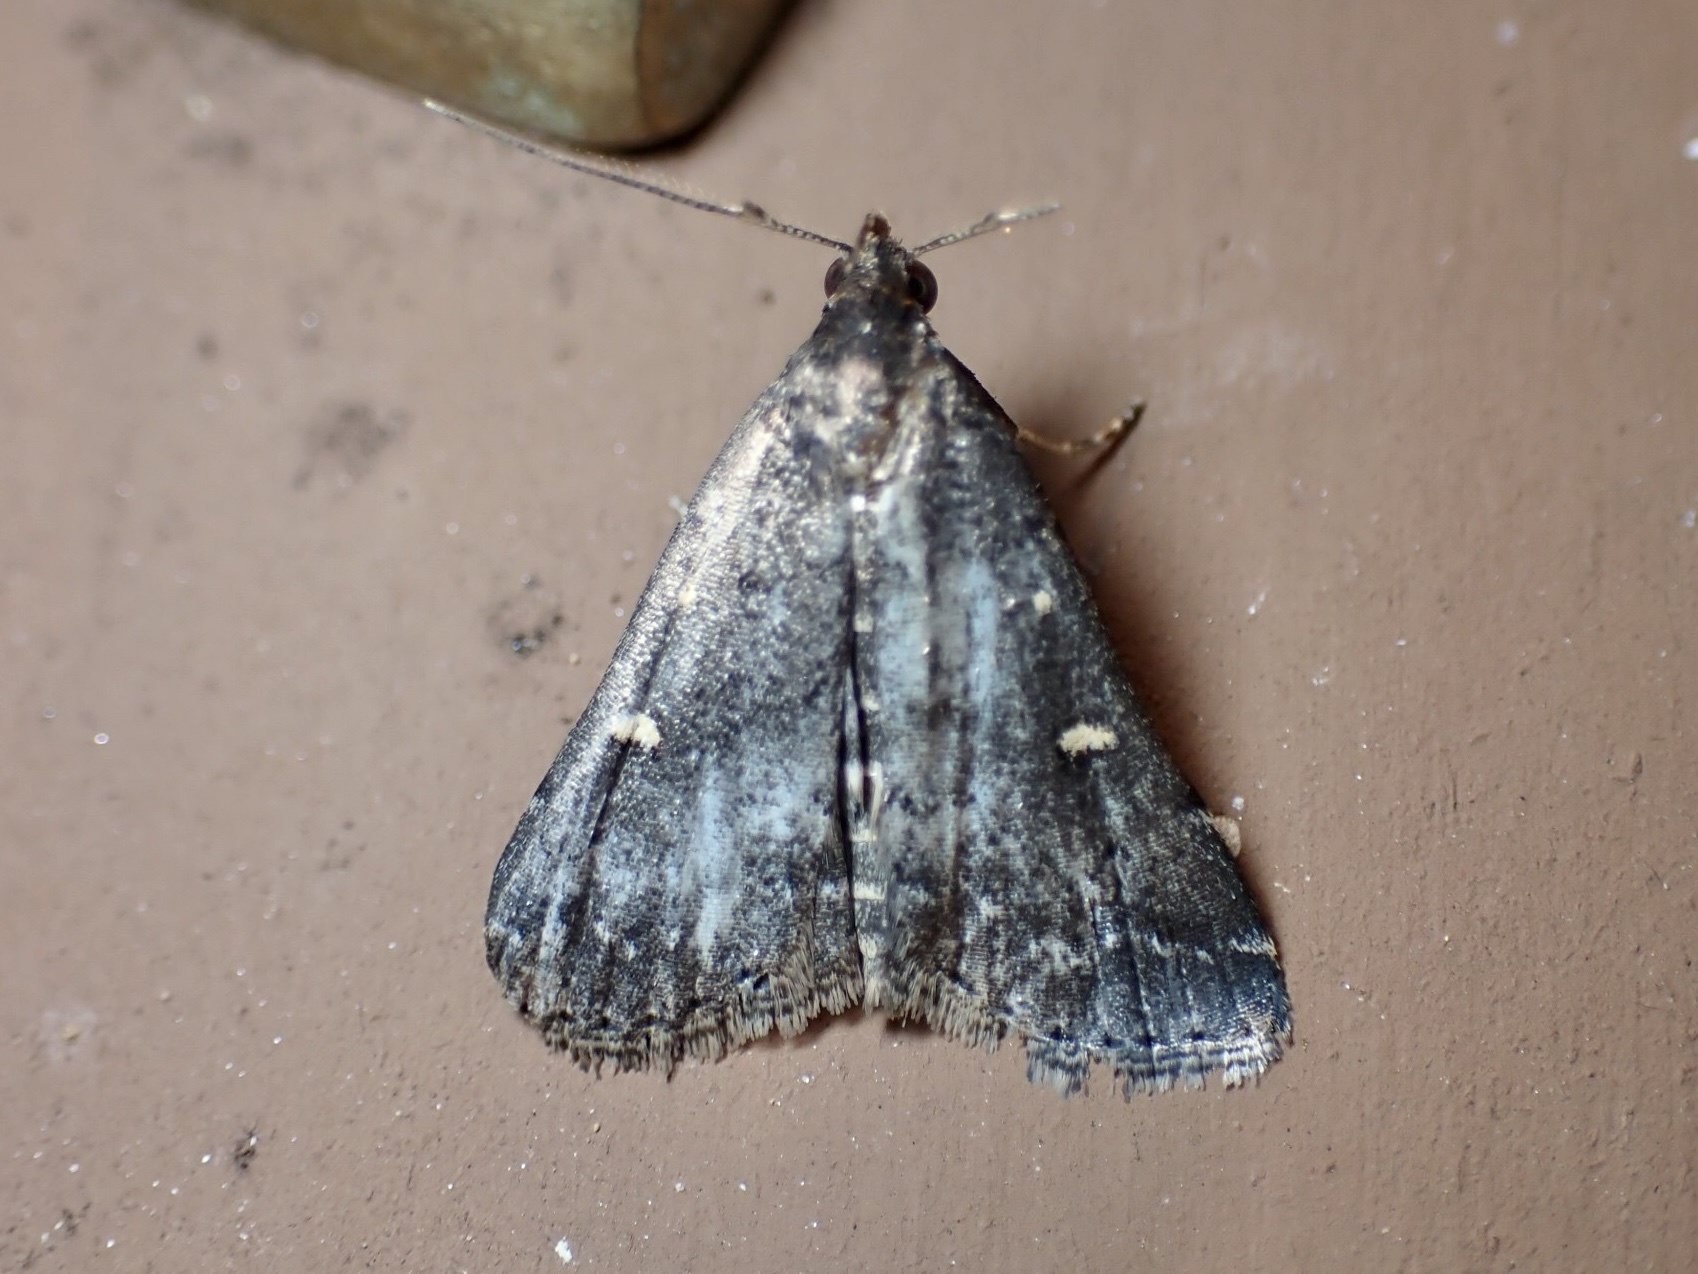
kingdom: Animalia
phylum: Arthropoda
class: Insecta
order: Lepidoptera
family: Erebidae
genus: Tetanolita
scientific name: Tetanolita mynesalis
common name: Smoky tetanolita moth
